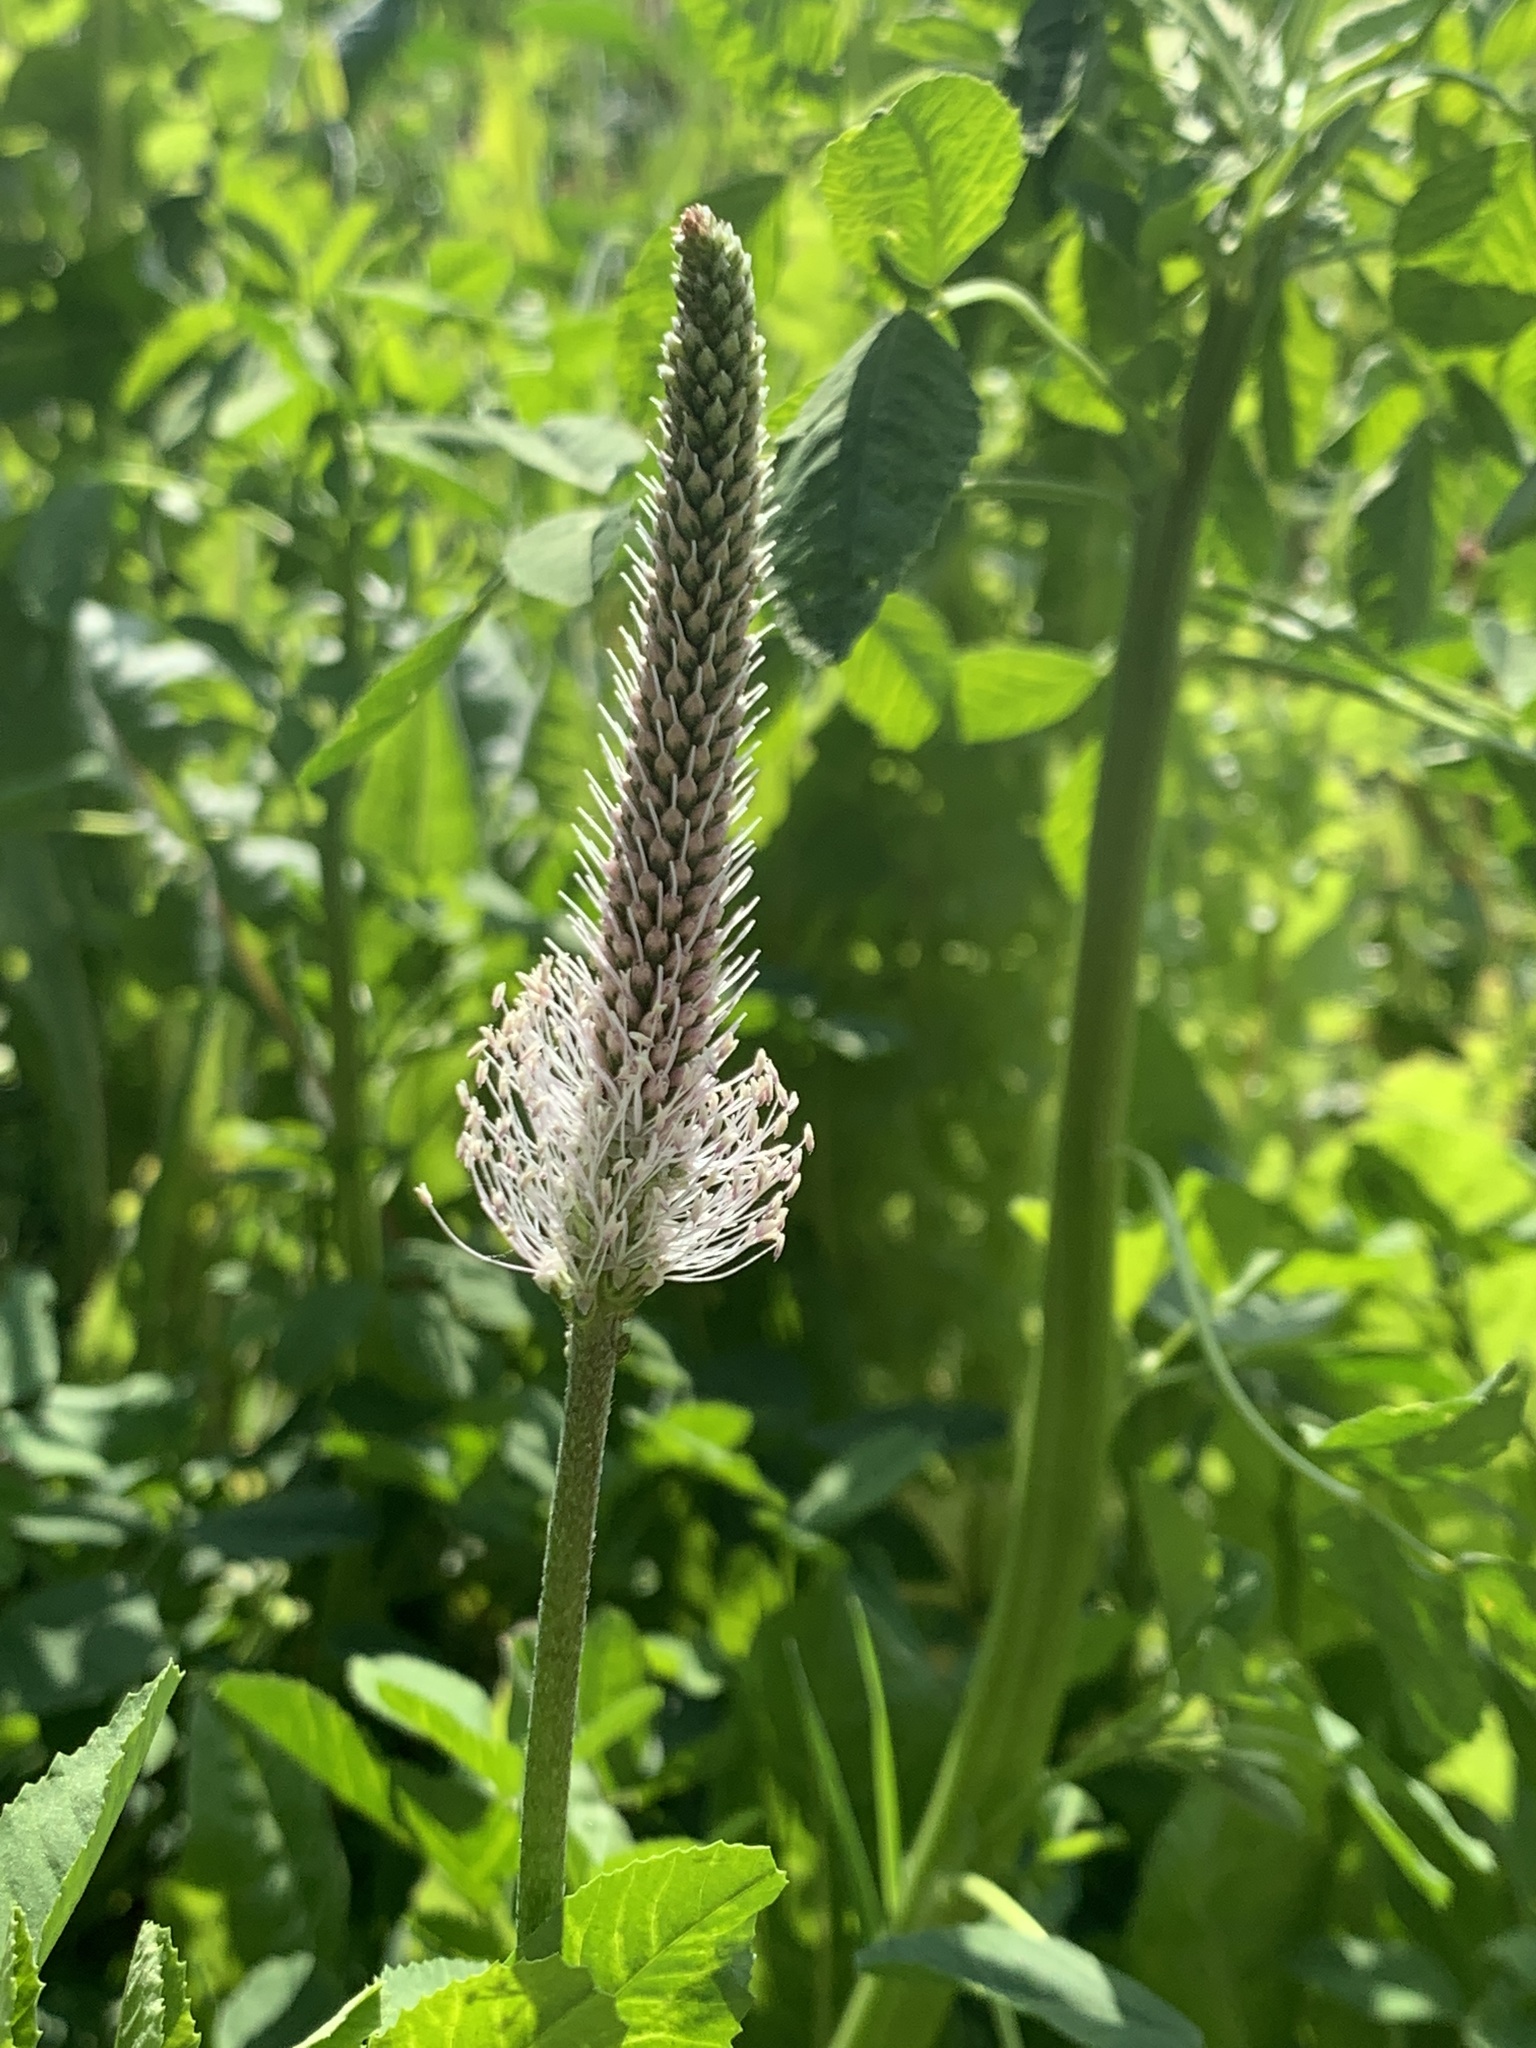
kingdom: Plantae
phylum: Tracheophyta
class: Magnoliopsida
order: Lamiales
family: Plantaginaceae
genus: Plantago
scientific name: Plantago media
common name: Hoary plantain
